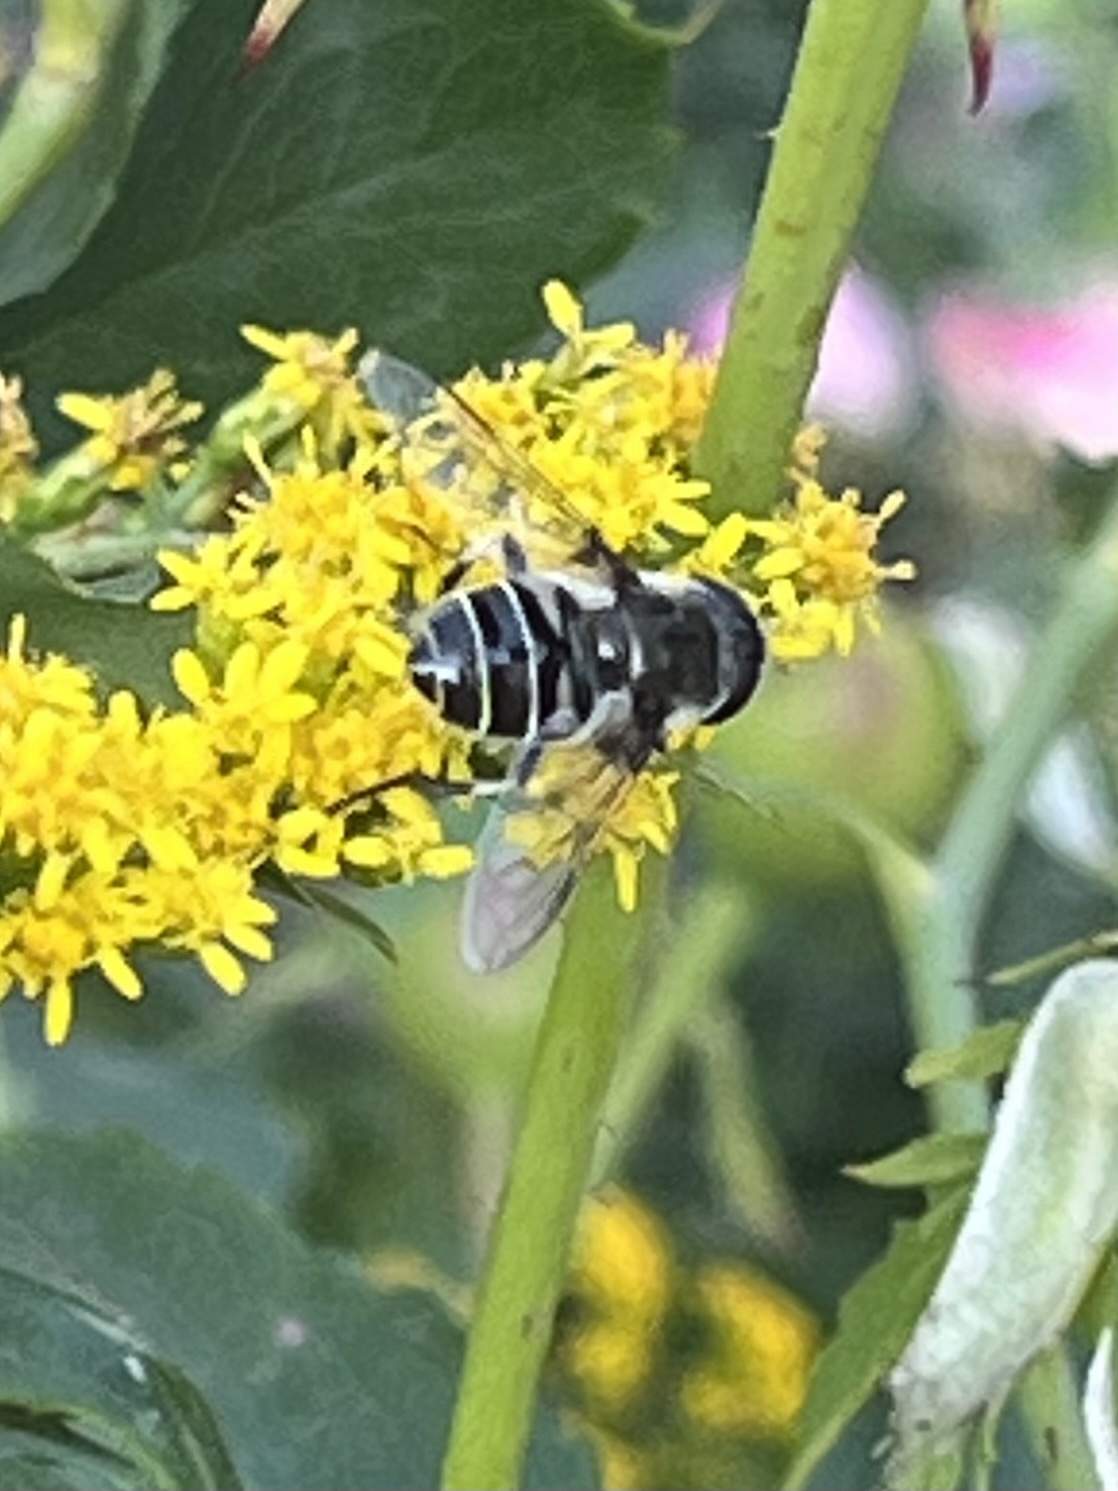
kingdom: Animalia
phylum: Arthropoda
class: Insecta
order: Diptera
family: Syrphidae
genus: Eristalis
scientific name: Eristalis dimidiata
